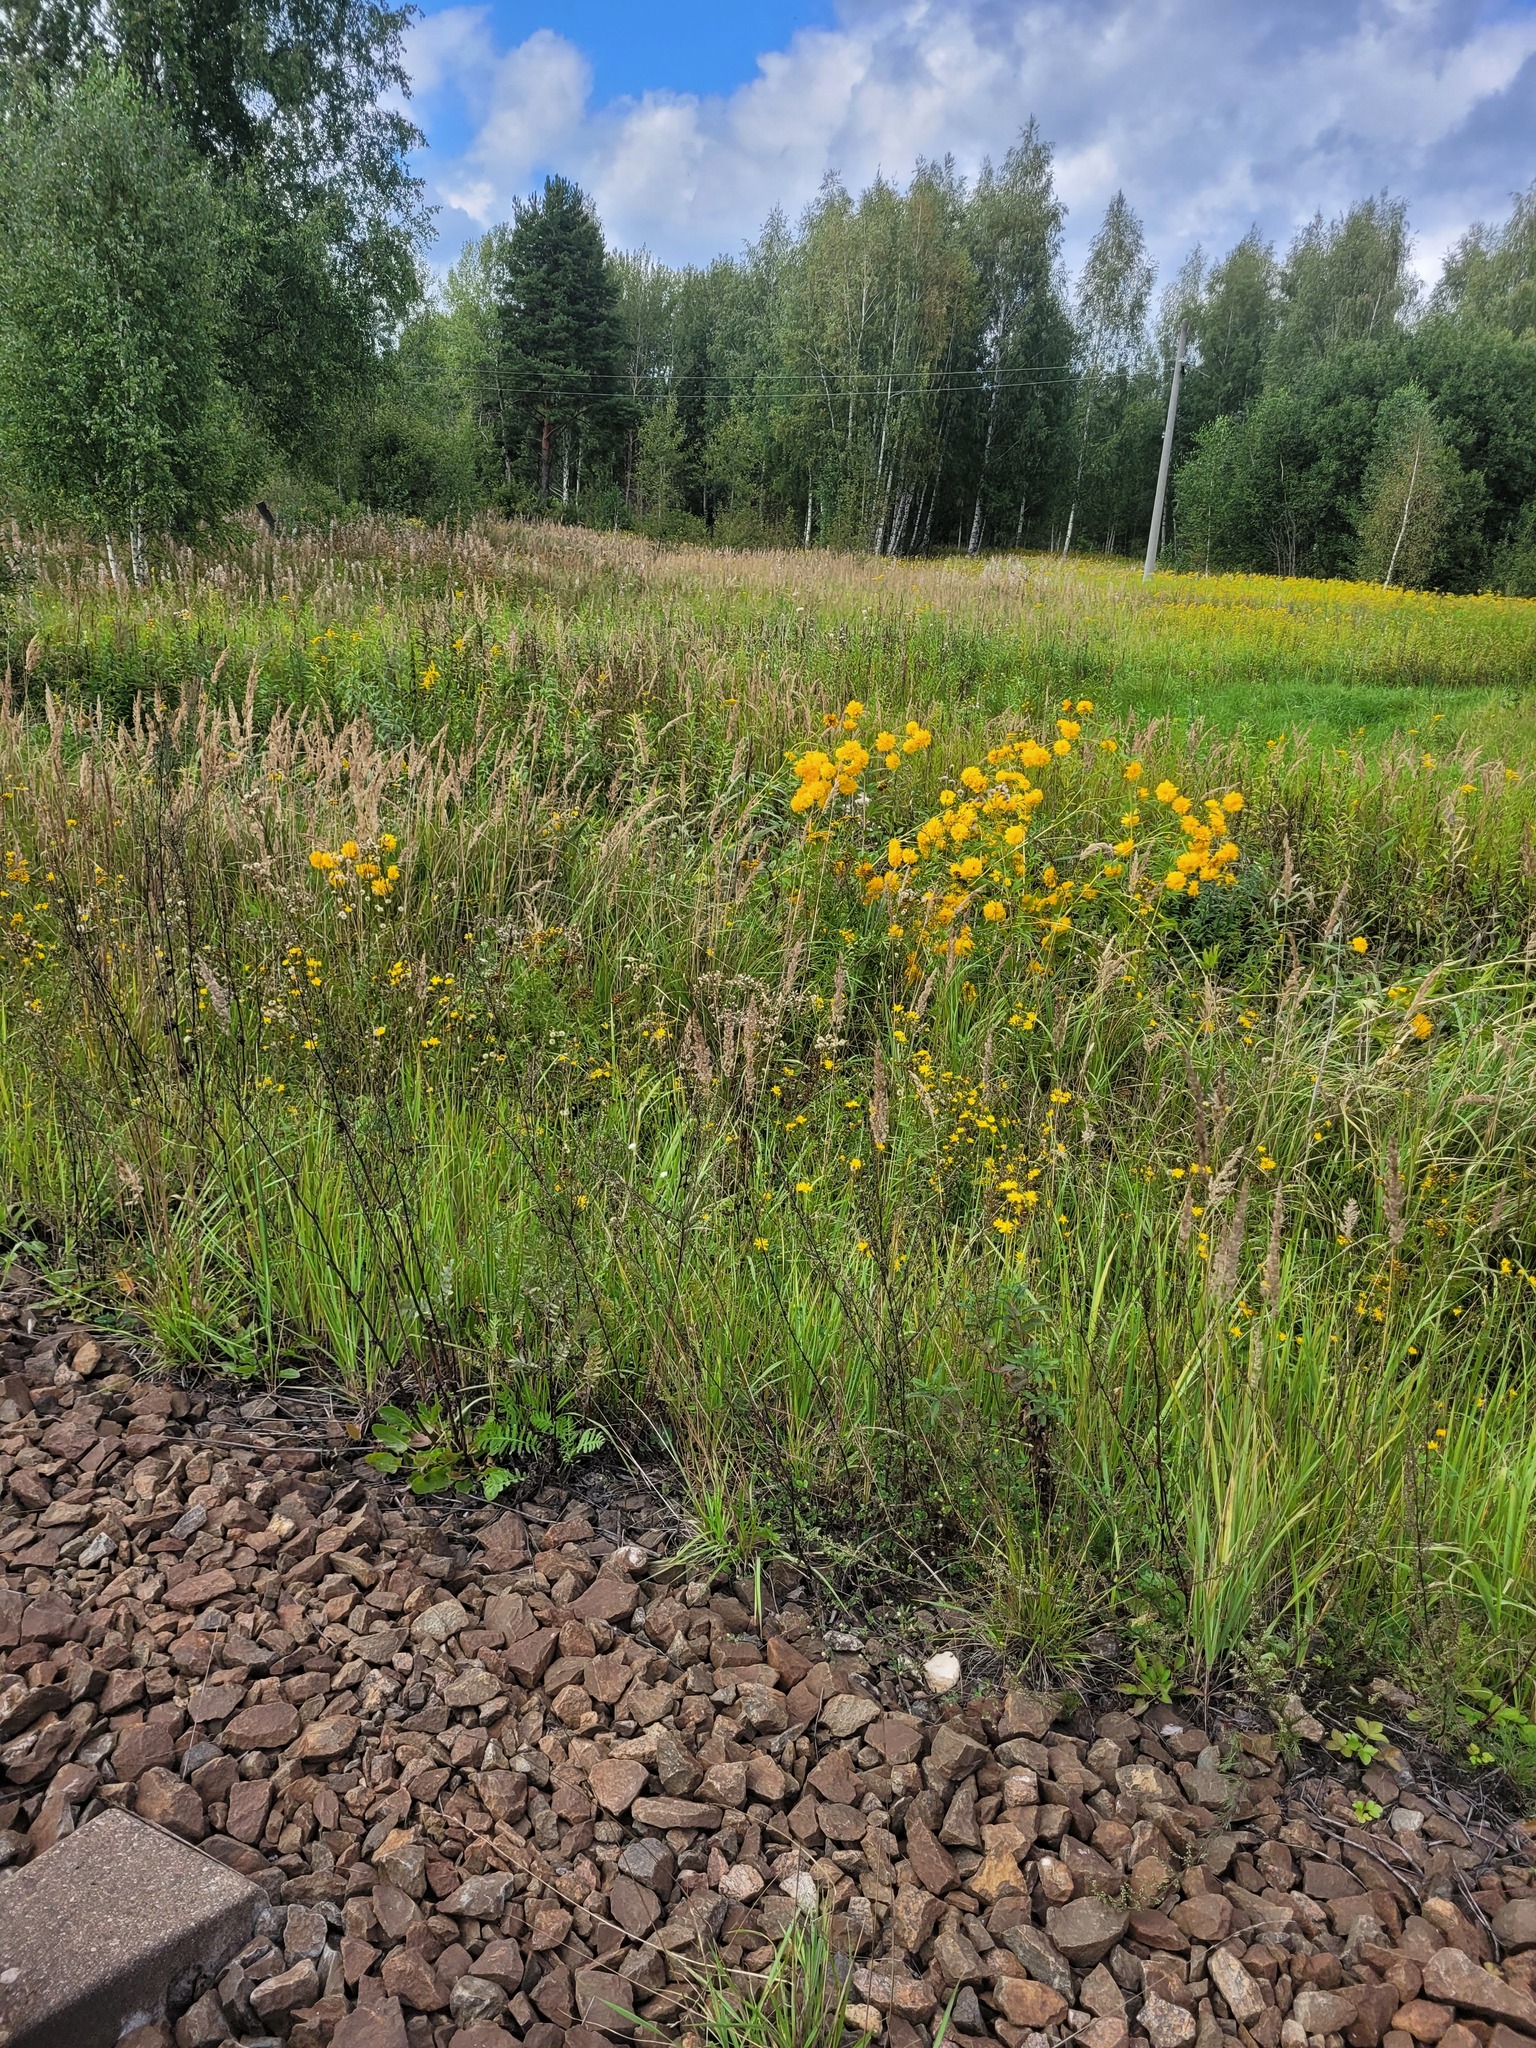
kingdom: Plantae
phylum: Tracheophyta
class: Magnoliopsida
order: Asterales
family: Asteraceae
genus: Rudbeckia
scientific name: Rudbeckia laciniata
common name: Coneflower
